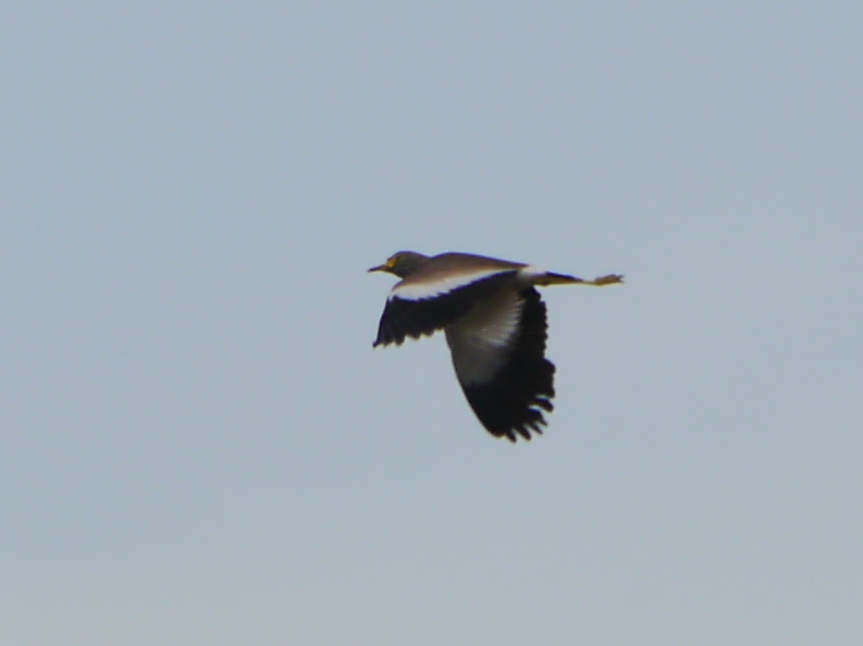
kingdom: Animalia
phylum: Chordata
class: Aves
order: Charadriiformes
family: Charadriidae
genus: Vanellus
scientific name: Vanellus senegallus
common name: African wattled lapwing
